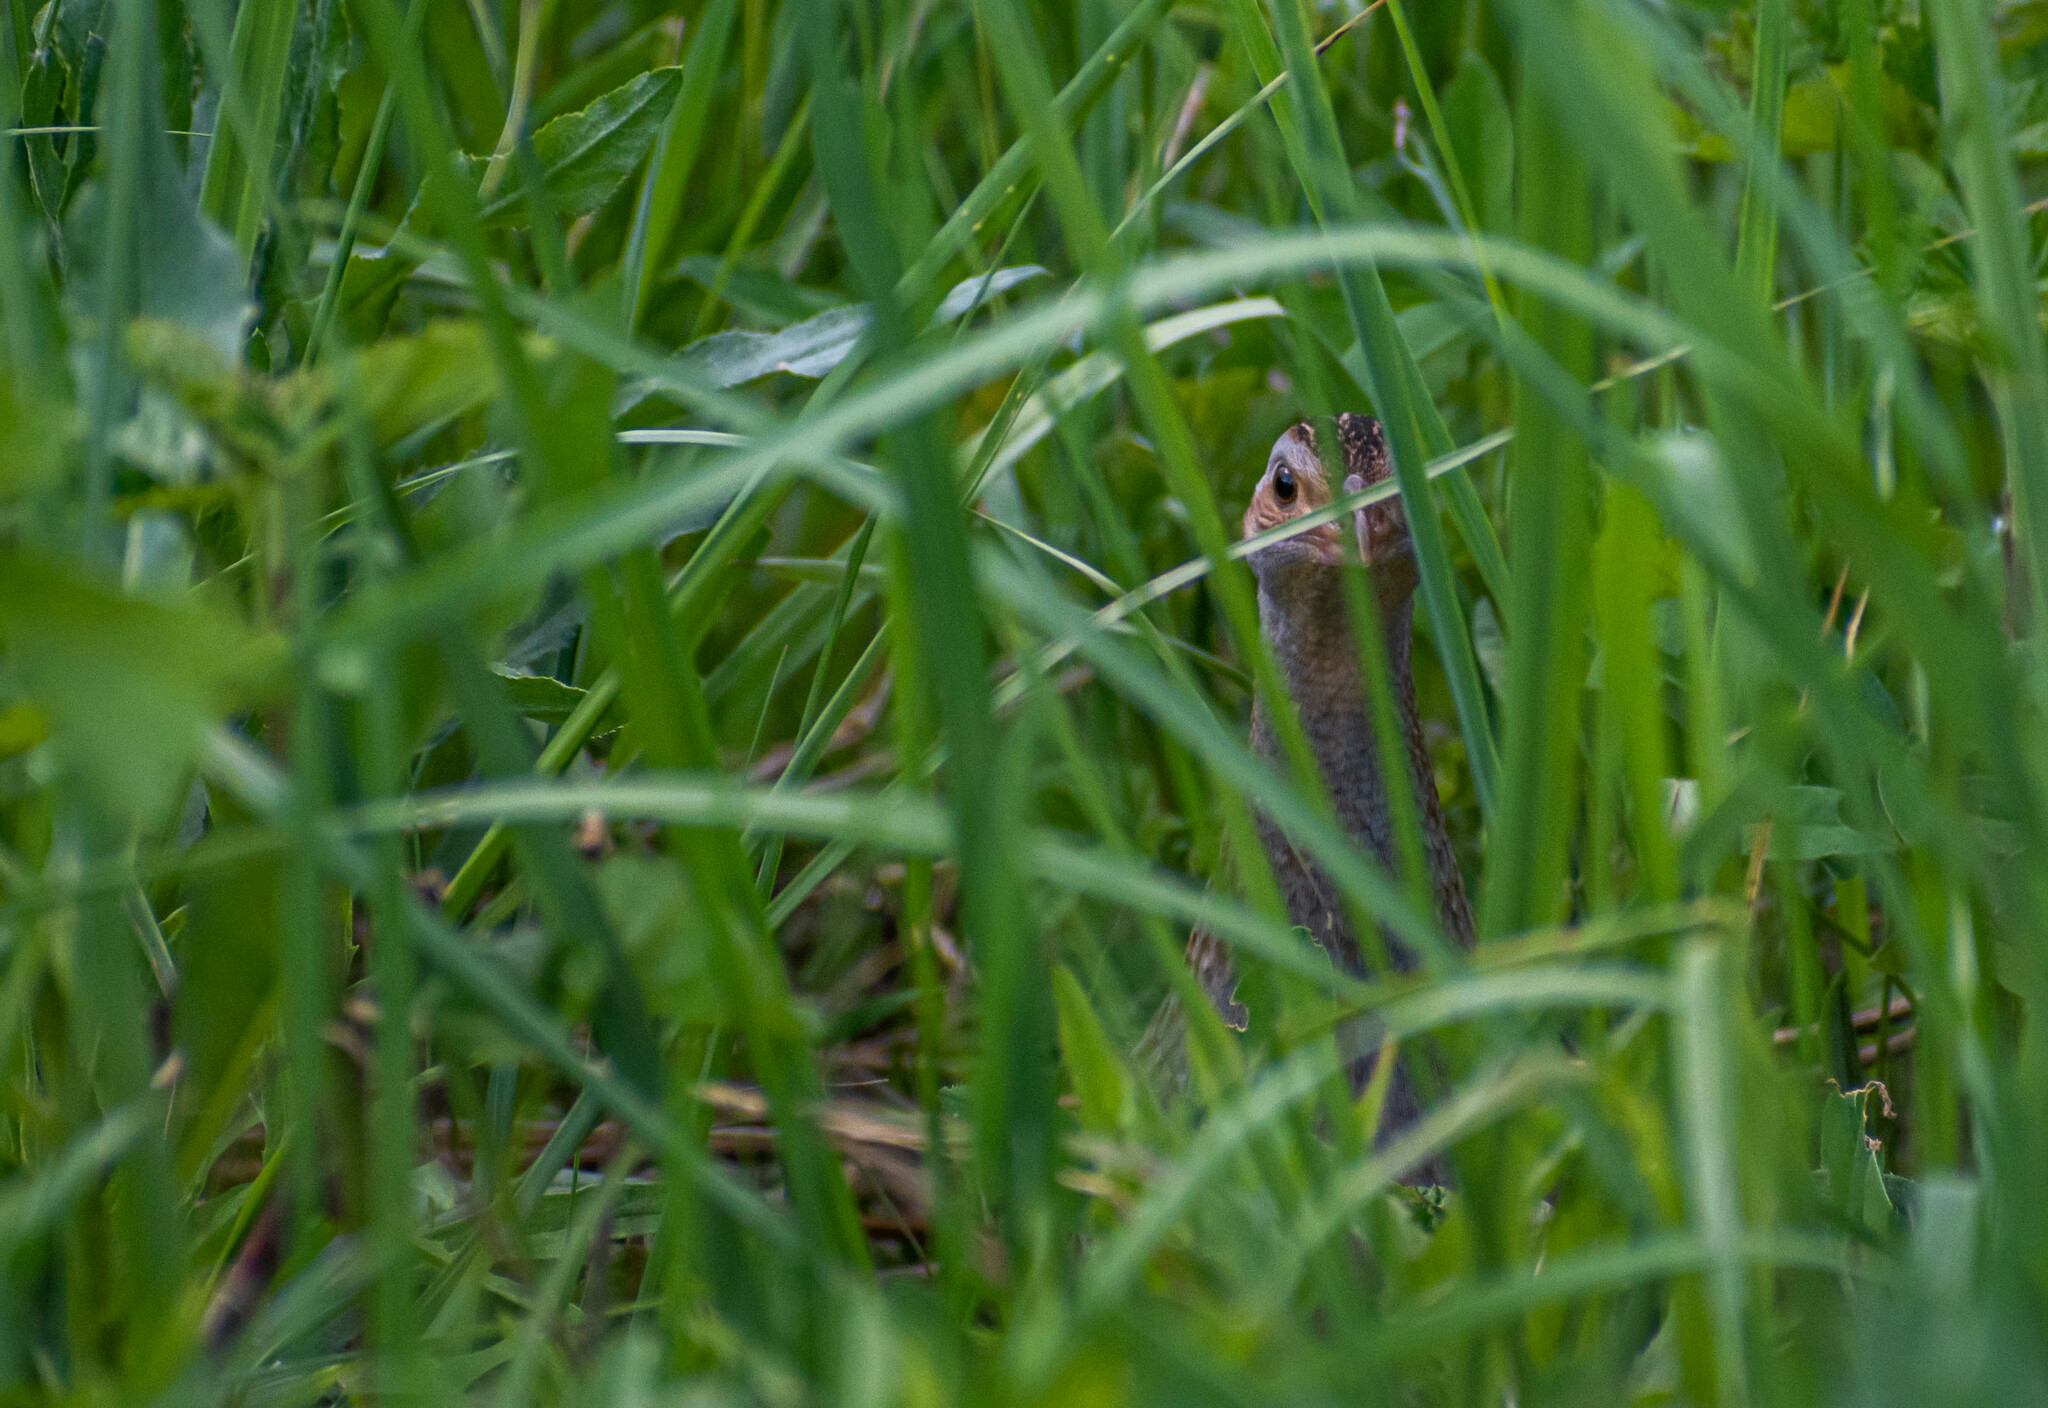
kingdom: Animalia
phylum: Chordata
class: Aves
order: Gruiformes
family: Rallidae
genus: Crex
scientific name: Crex crex
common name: Corn crake
